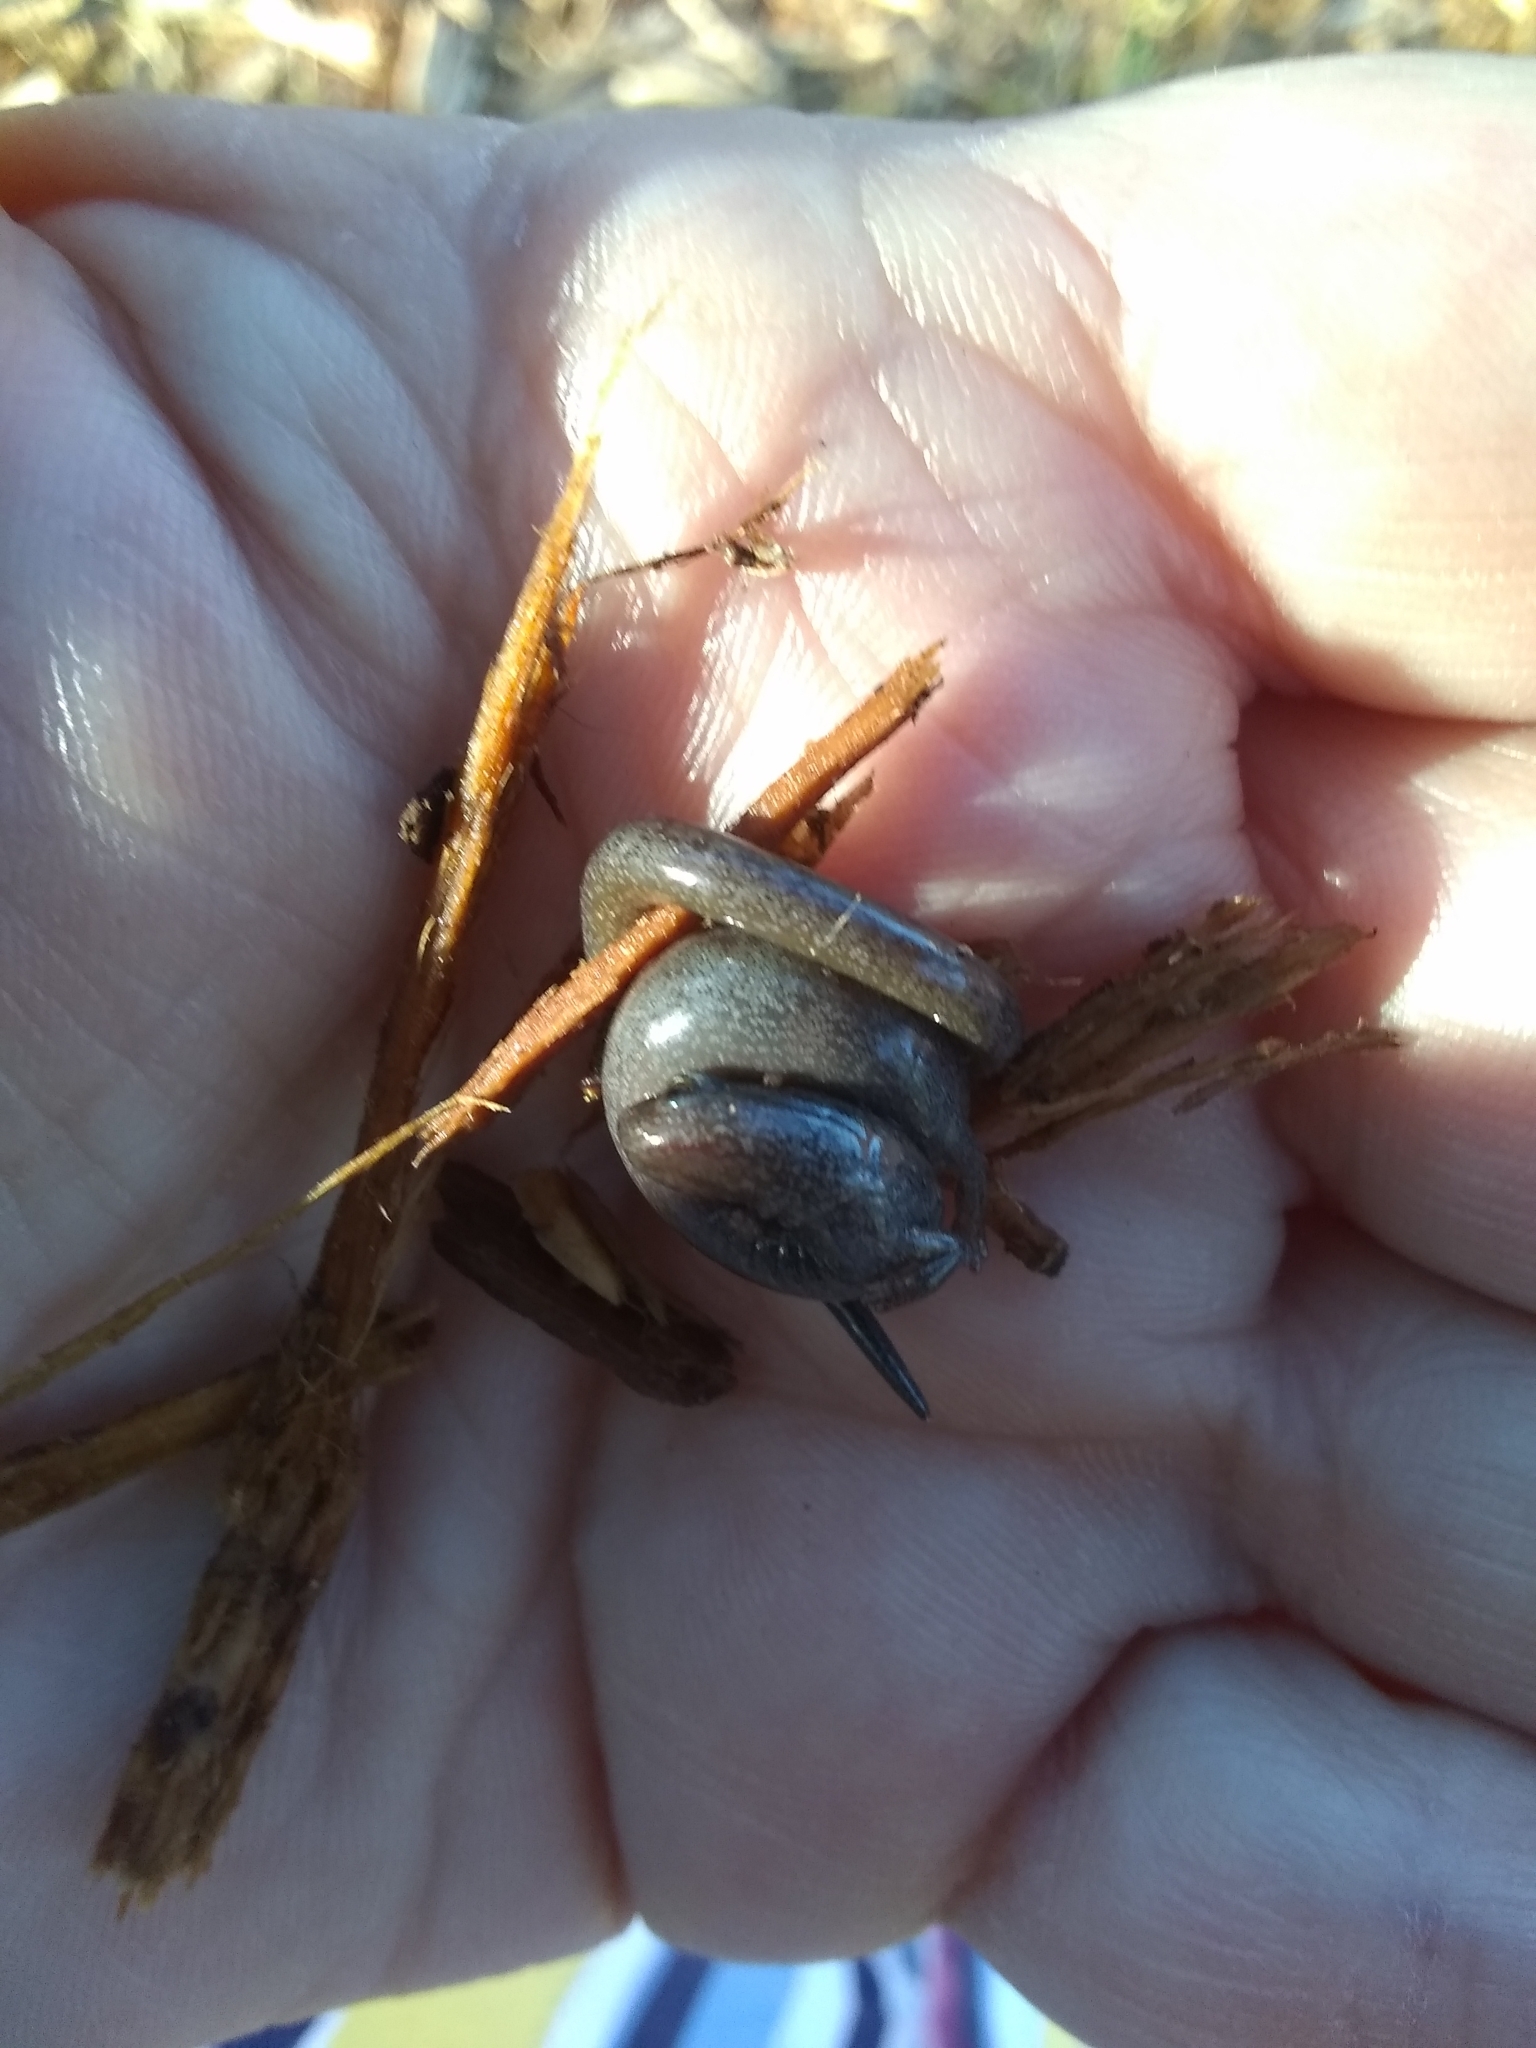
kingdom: Animalia
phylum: Chordata
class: Amphibia
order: Caudata
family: Plethodontidae
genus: Batrachoseps
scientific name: Batrachoseps attenuatus
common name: California slender salamander
